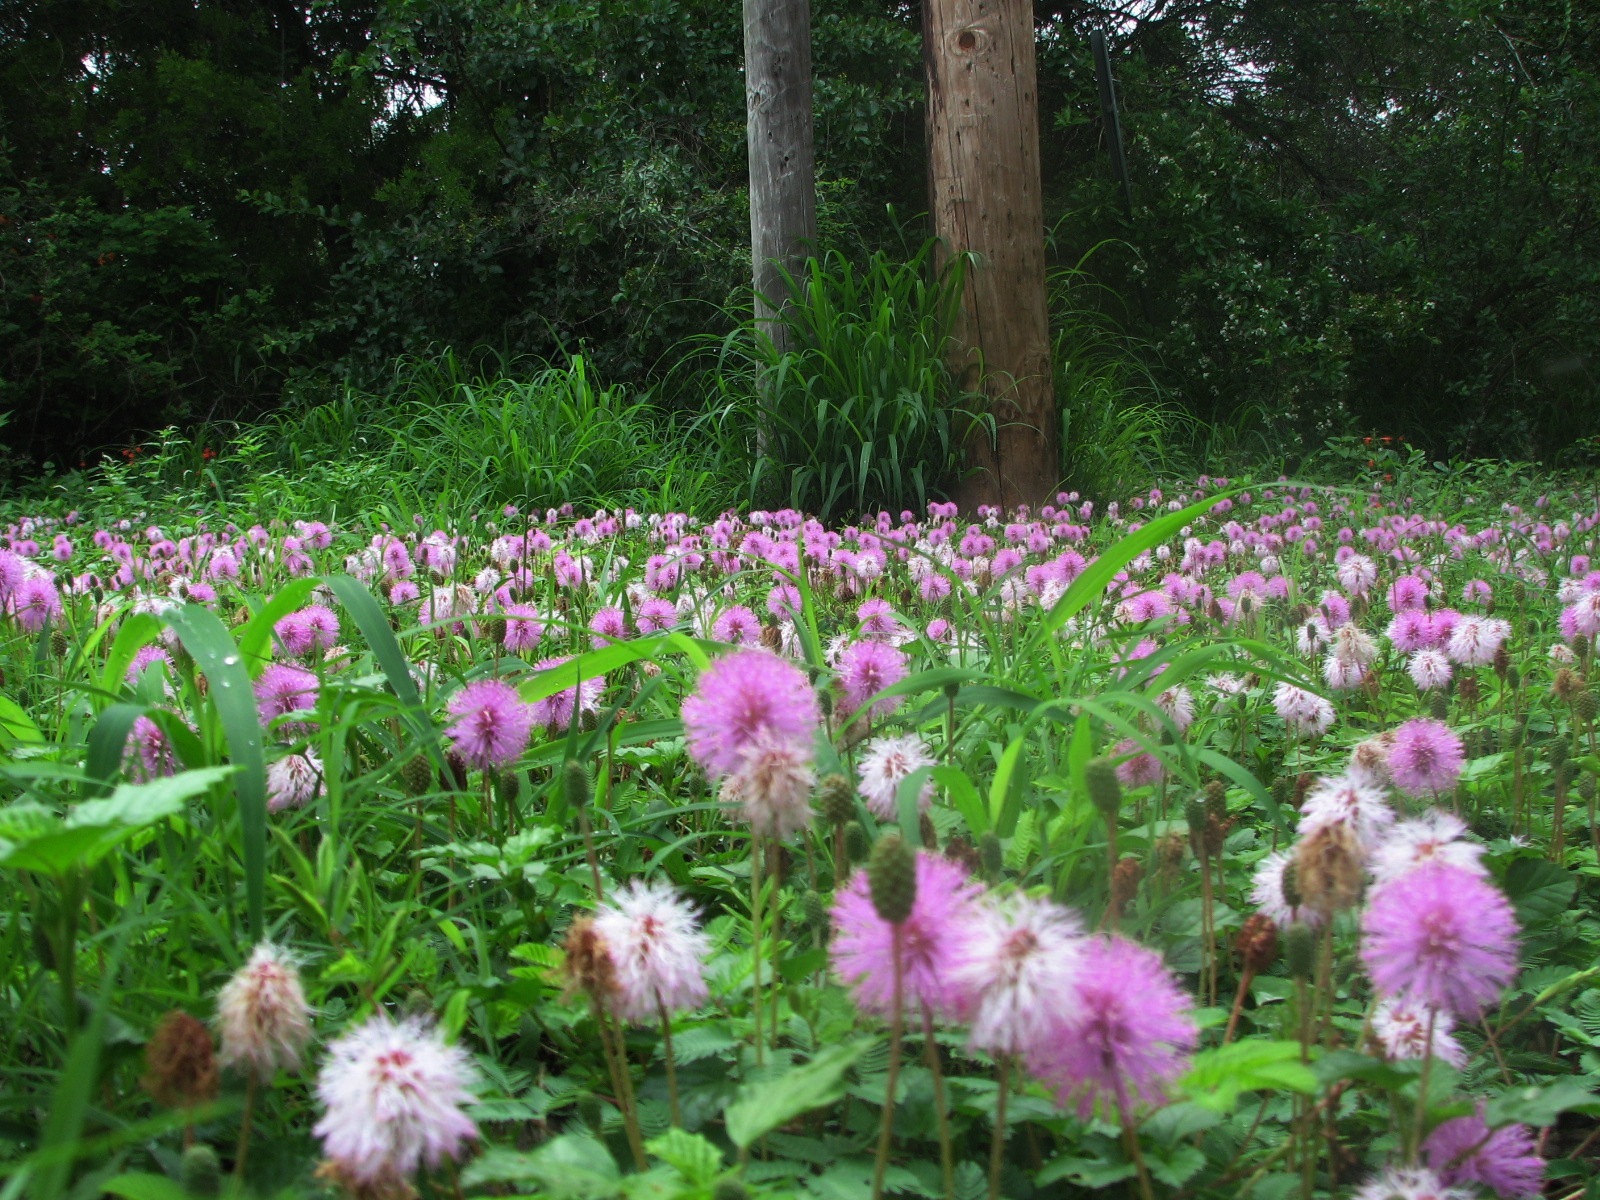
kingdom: Plantae
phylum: Tracheophyta
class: Magnoliopsida
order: Fabales
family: Fabaceae
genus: Mimosa
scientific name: Mimosa strigillosa
